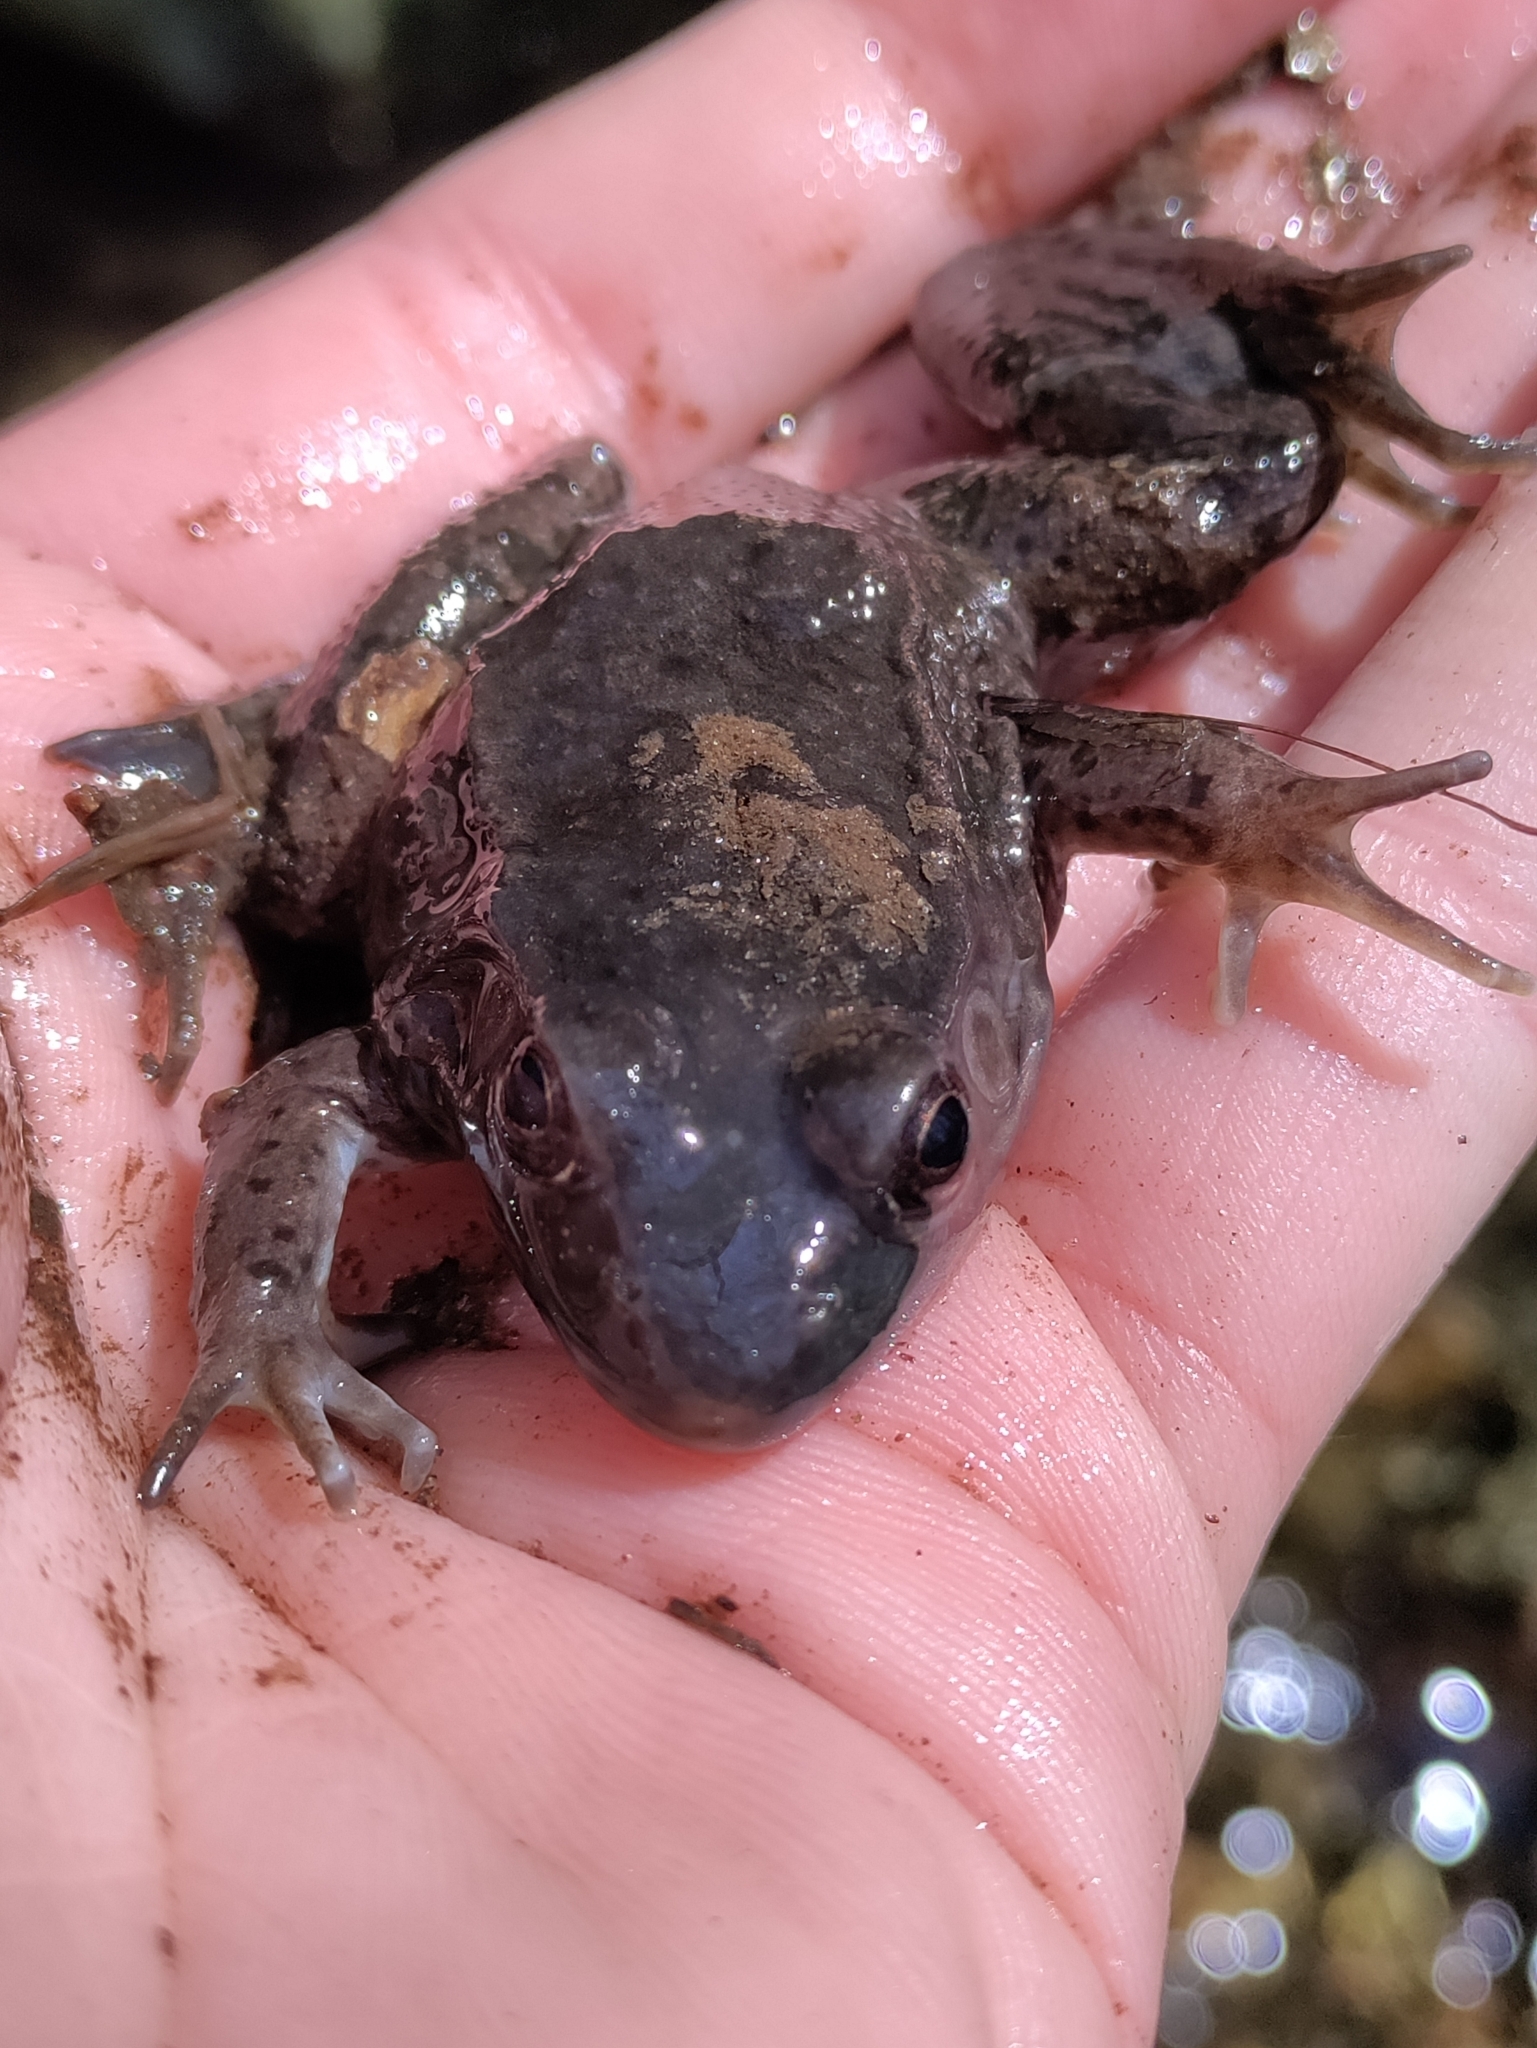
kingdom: Animalia
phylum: Chordata
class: Amphibia
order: Anura
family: Ranidae
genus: Lithobates
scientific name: Lithobates clamitans
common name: Green frog
